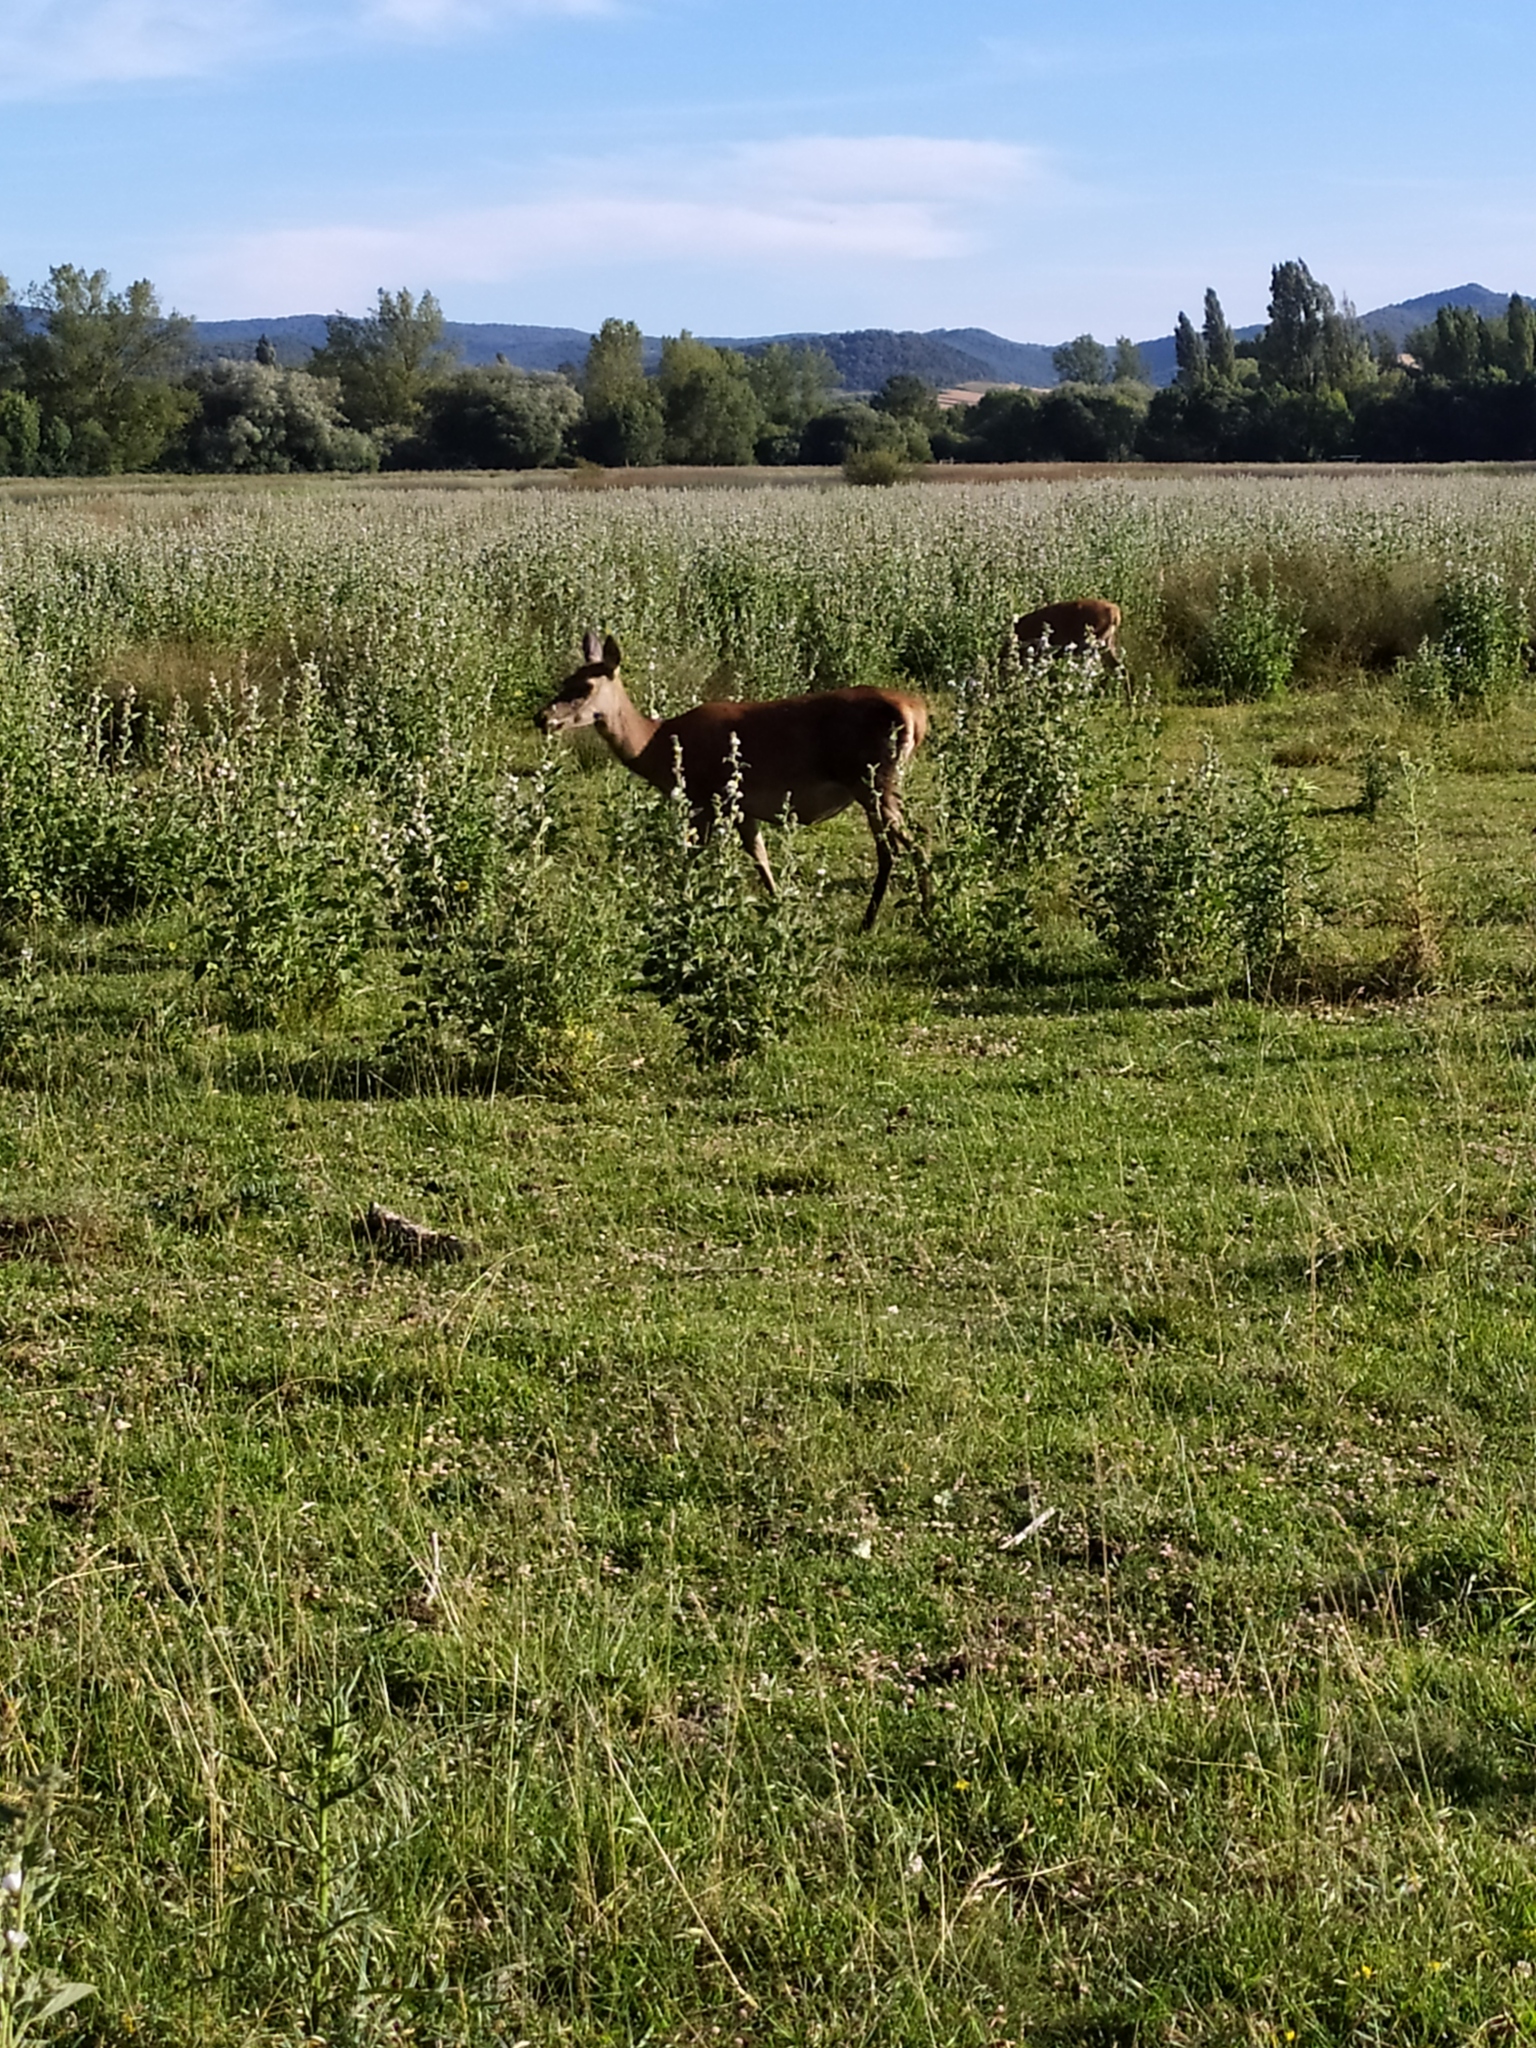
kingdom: Animalia
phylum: Chordata
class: Mammalia
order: Artiodactyla
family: Cervidae
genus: Cervus
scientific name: Cervus elaphus
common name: Red deer
